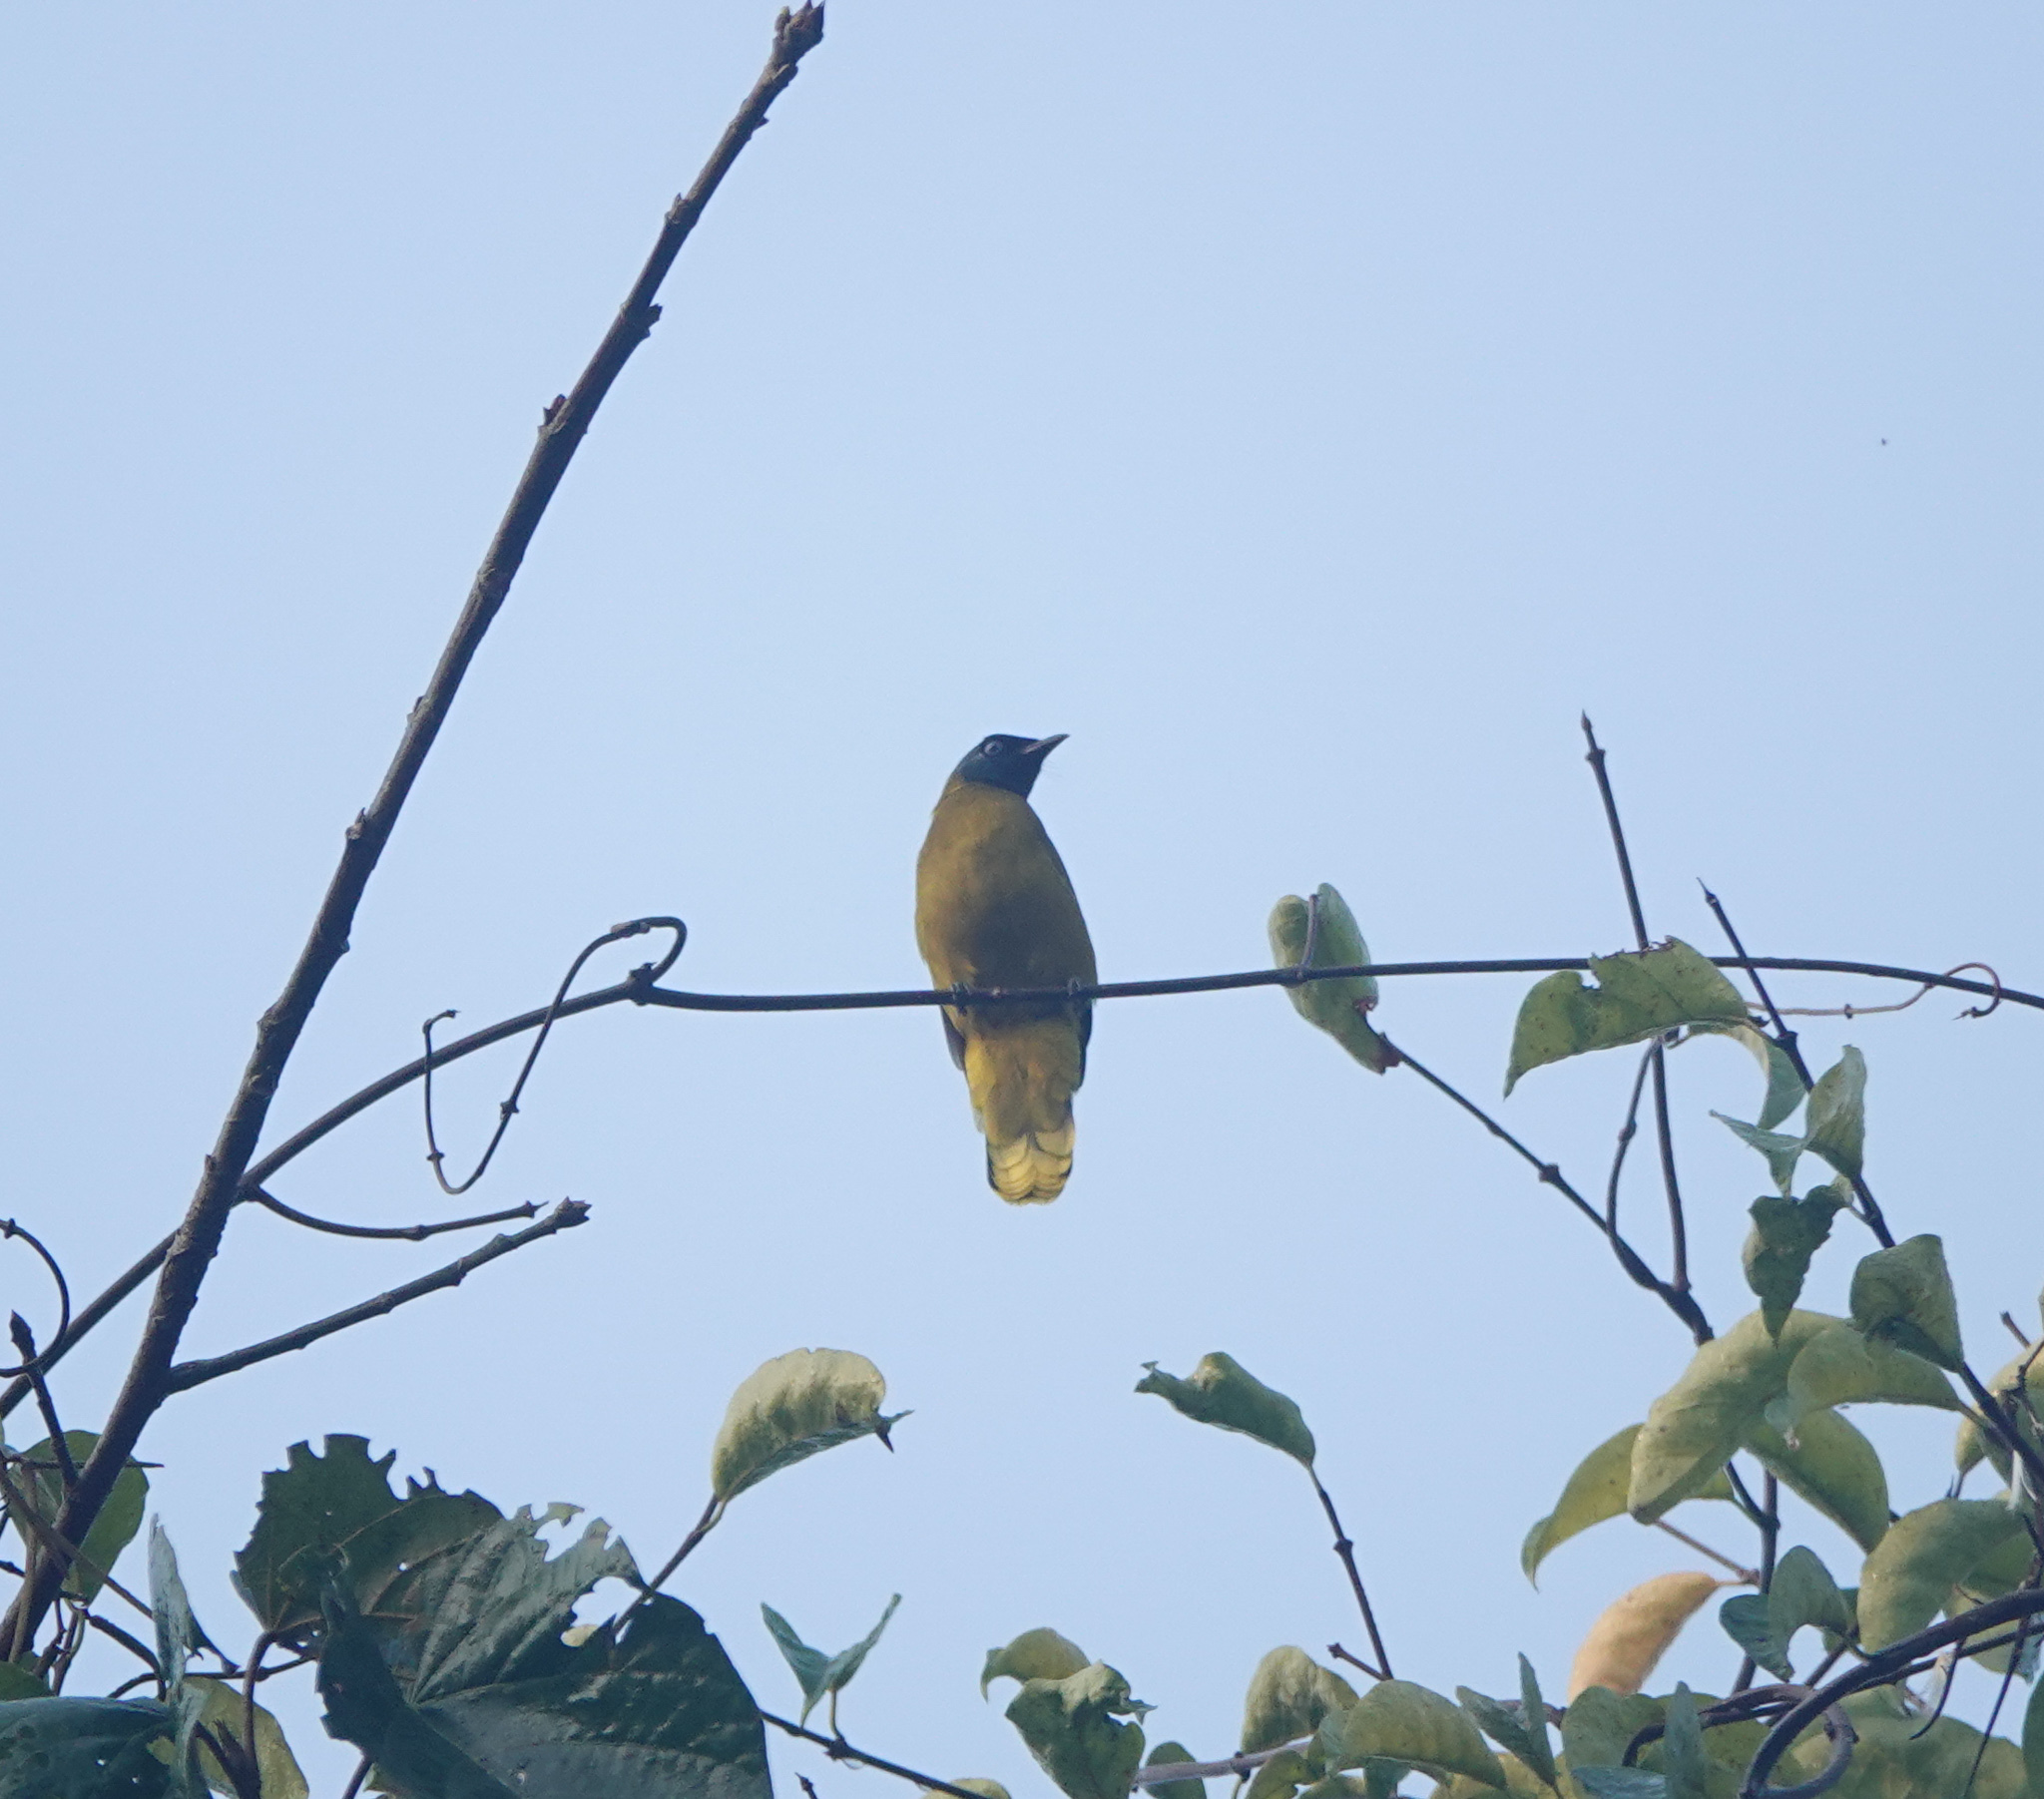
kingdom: Animalia
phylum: Chordata
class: Aves
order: Passeriformes
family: Pycnonotidae
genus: Microtarsus
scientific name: Microtarsus
